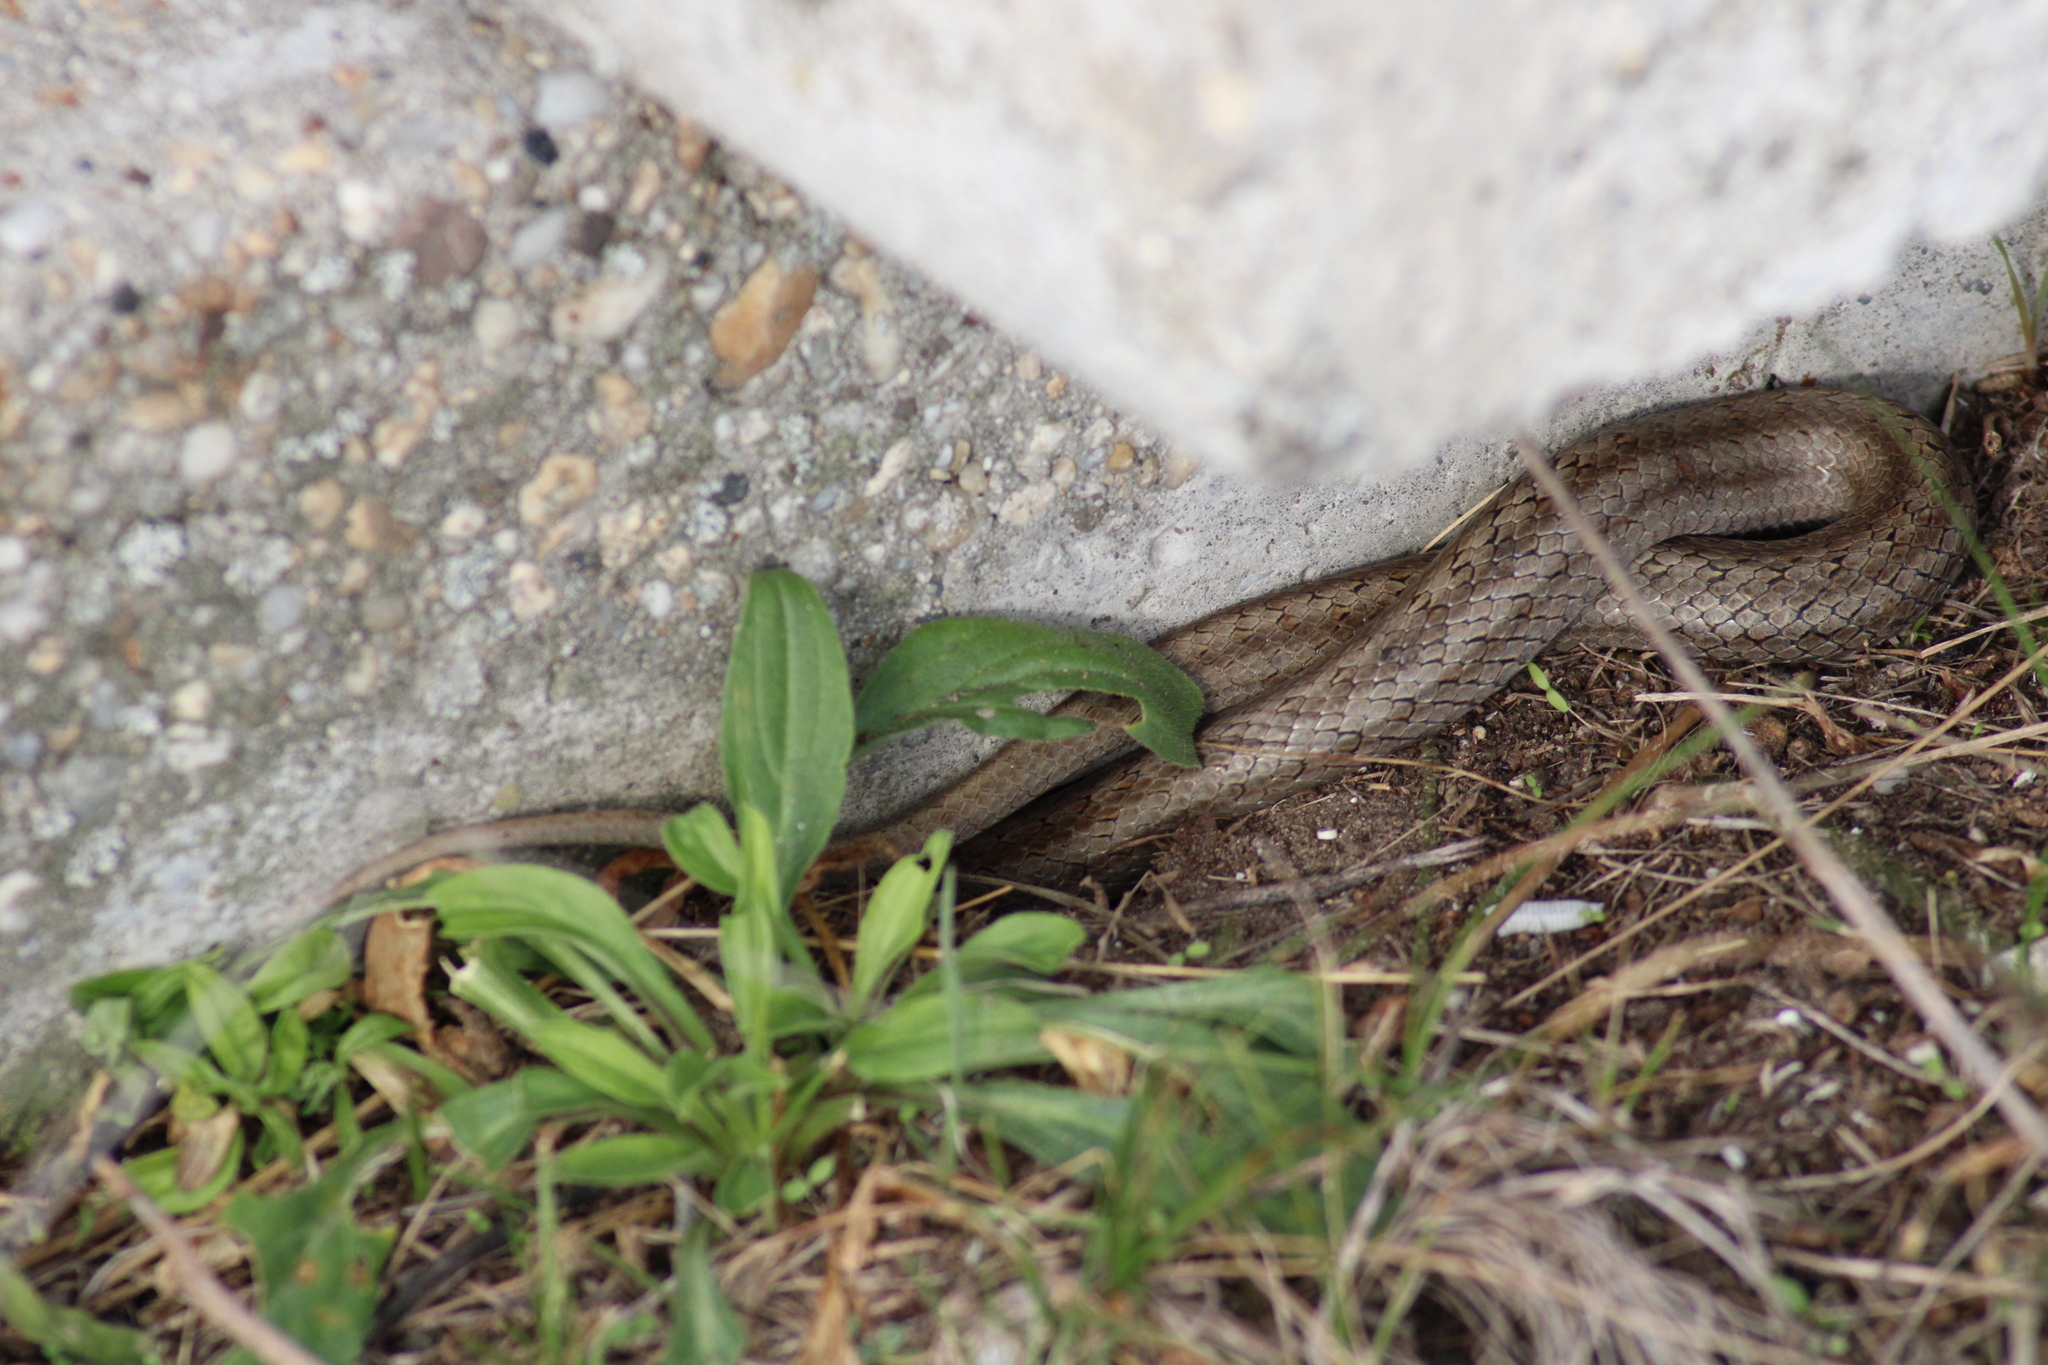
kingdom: Animalia
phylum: Chordata
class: Squamata
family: Colubridae
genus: Coronella
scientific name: Coronella austriaca
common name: Smooth snake
